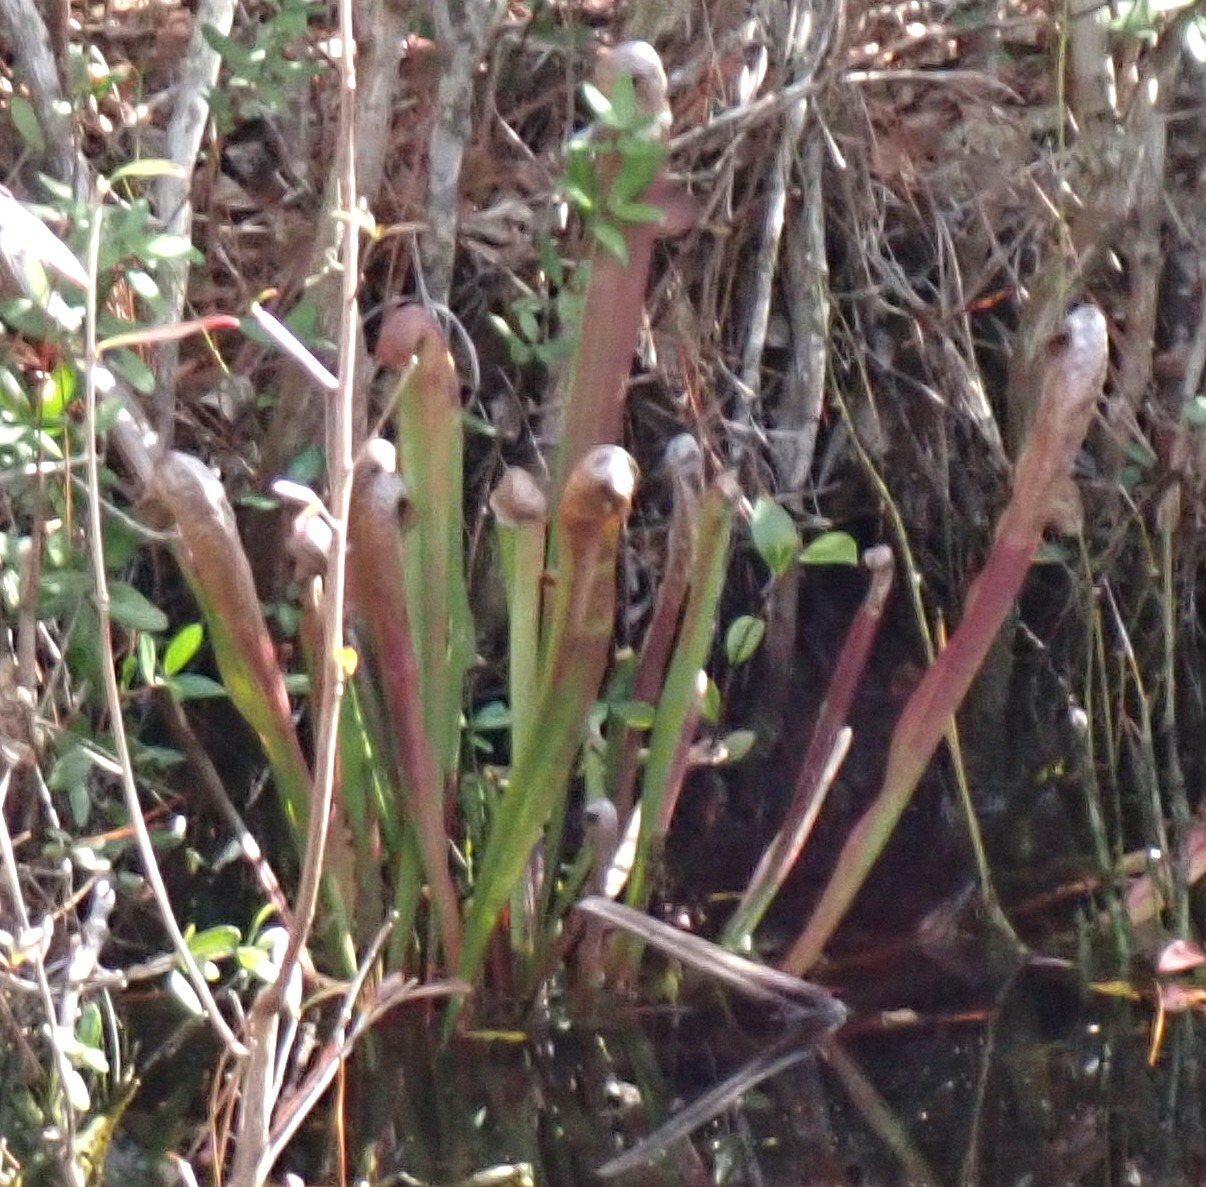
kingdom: Plantae
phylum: Tracheophyta
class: Magnoliopsida
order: Ericales
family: Sarraceniaceae
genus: Sarracenia
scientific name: Sarracenia minor
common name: Rainhat-trumpet
